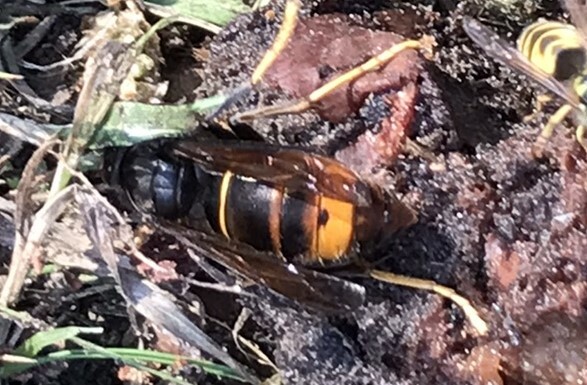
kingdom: Animalia
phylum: Arthropoda
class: Insecta
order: Hymenoptera
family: Vespidae
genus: Vespa
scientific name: Vespa velutina
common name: Asian hornet
